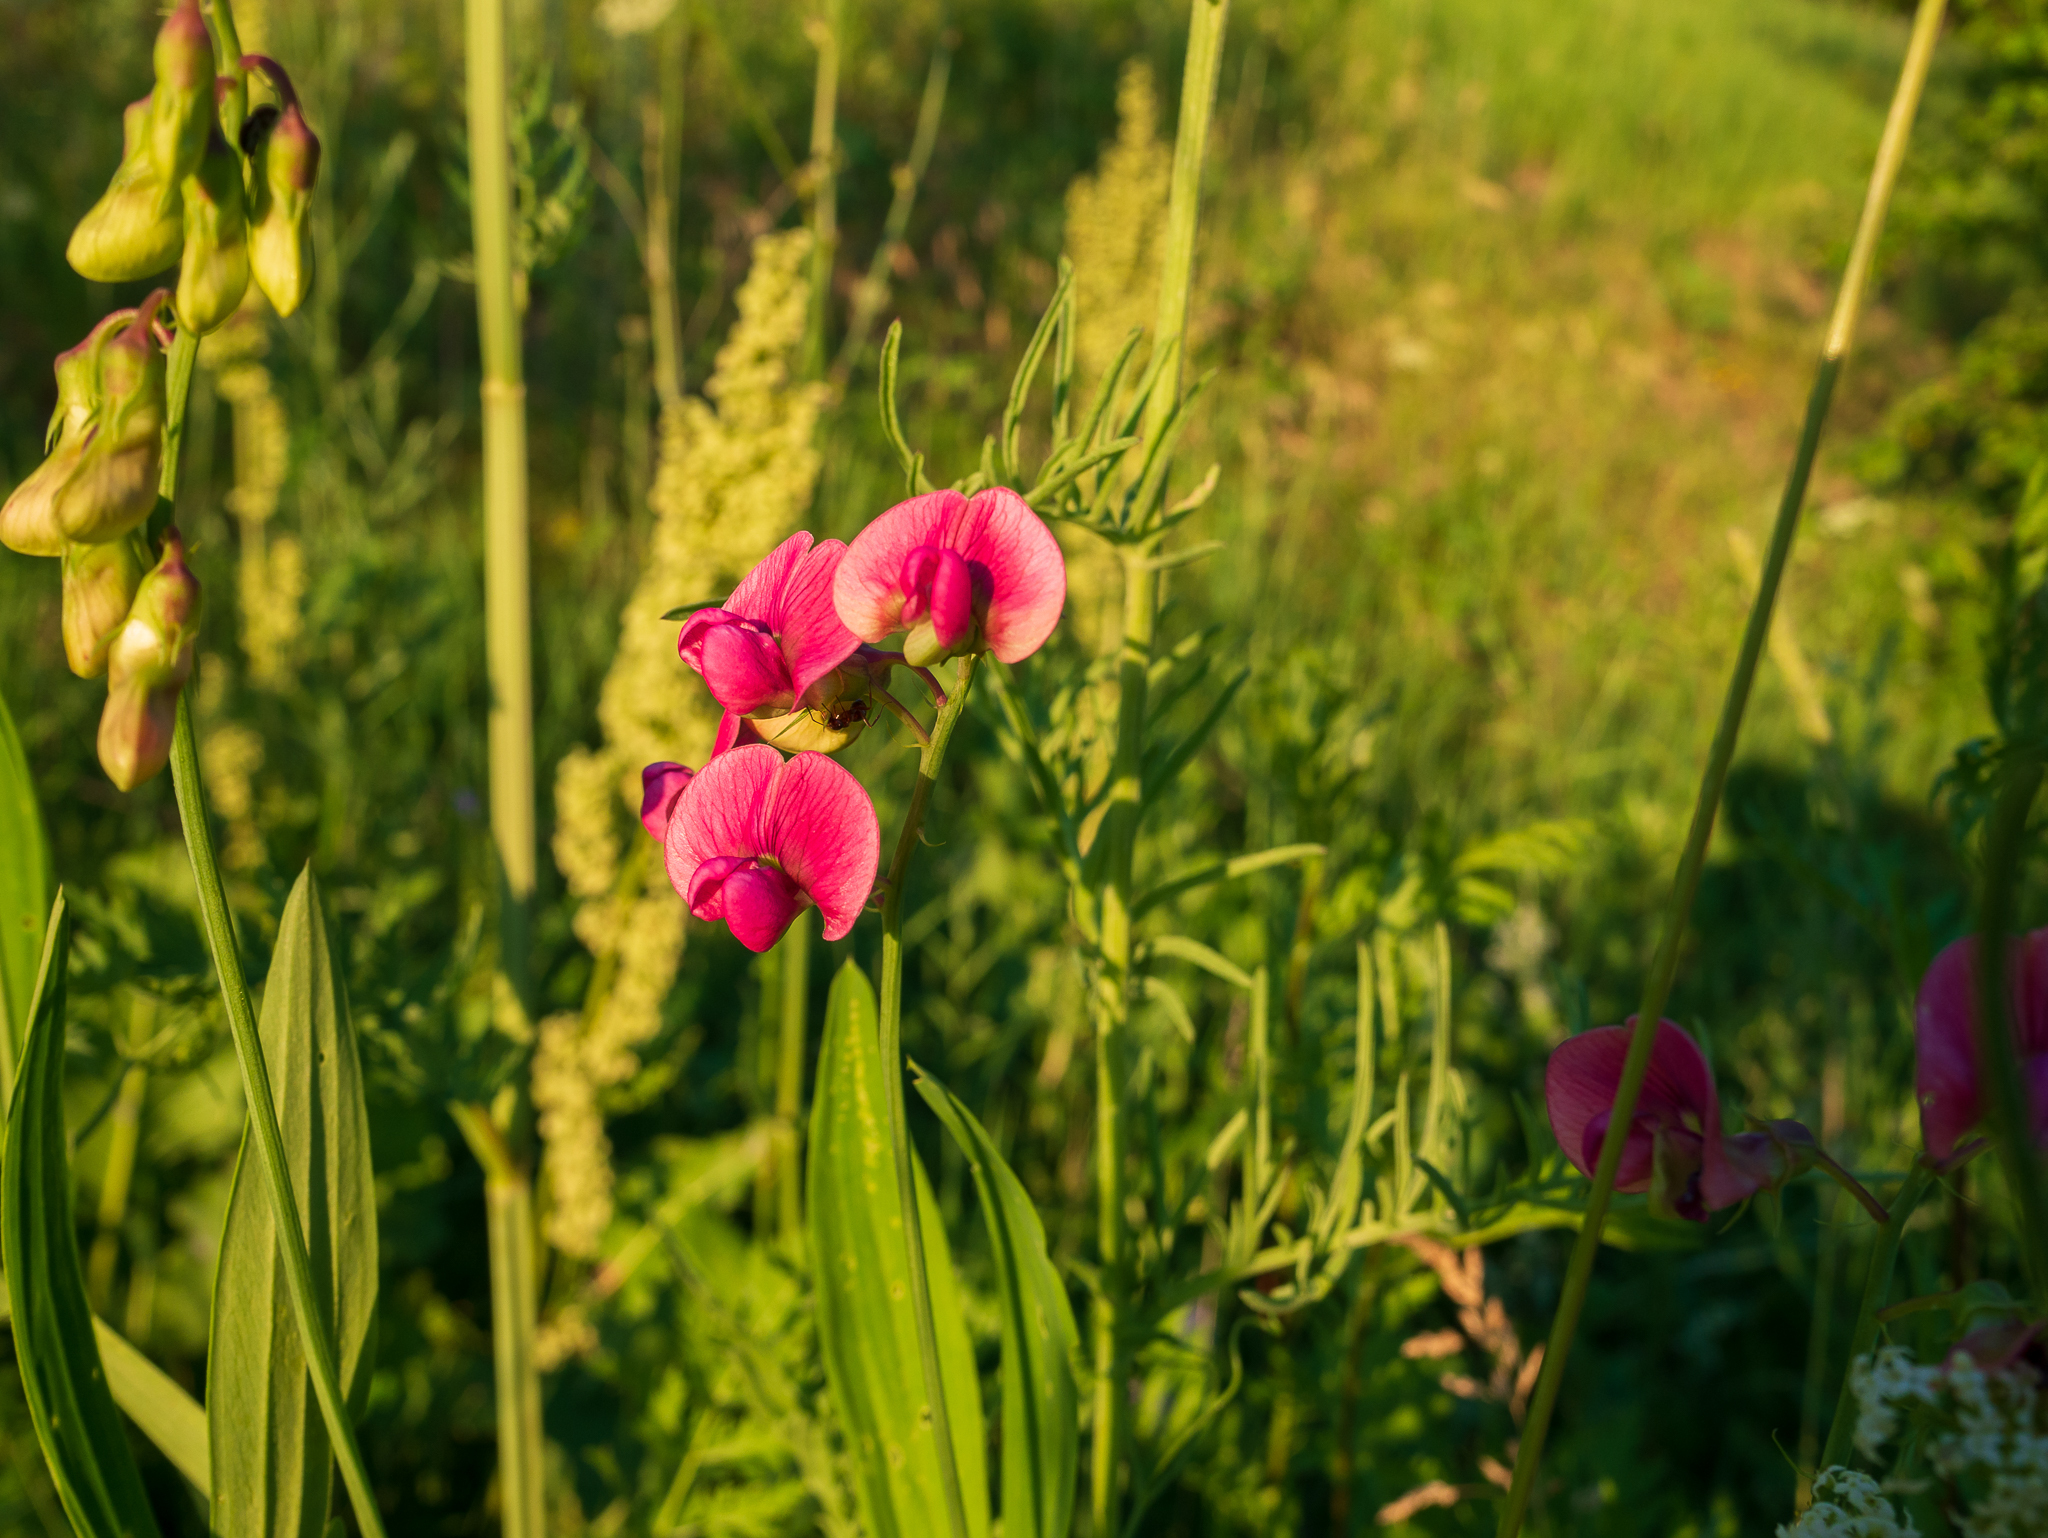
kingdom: Plantae
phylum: Tracheophyta
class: Magnoliopsida
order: Fabales
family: Fabaceae
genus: Lathyrus
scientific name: Lathyrus sylvestris
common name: Flat pea
